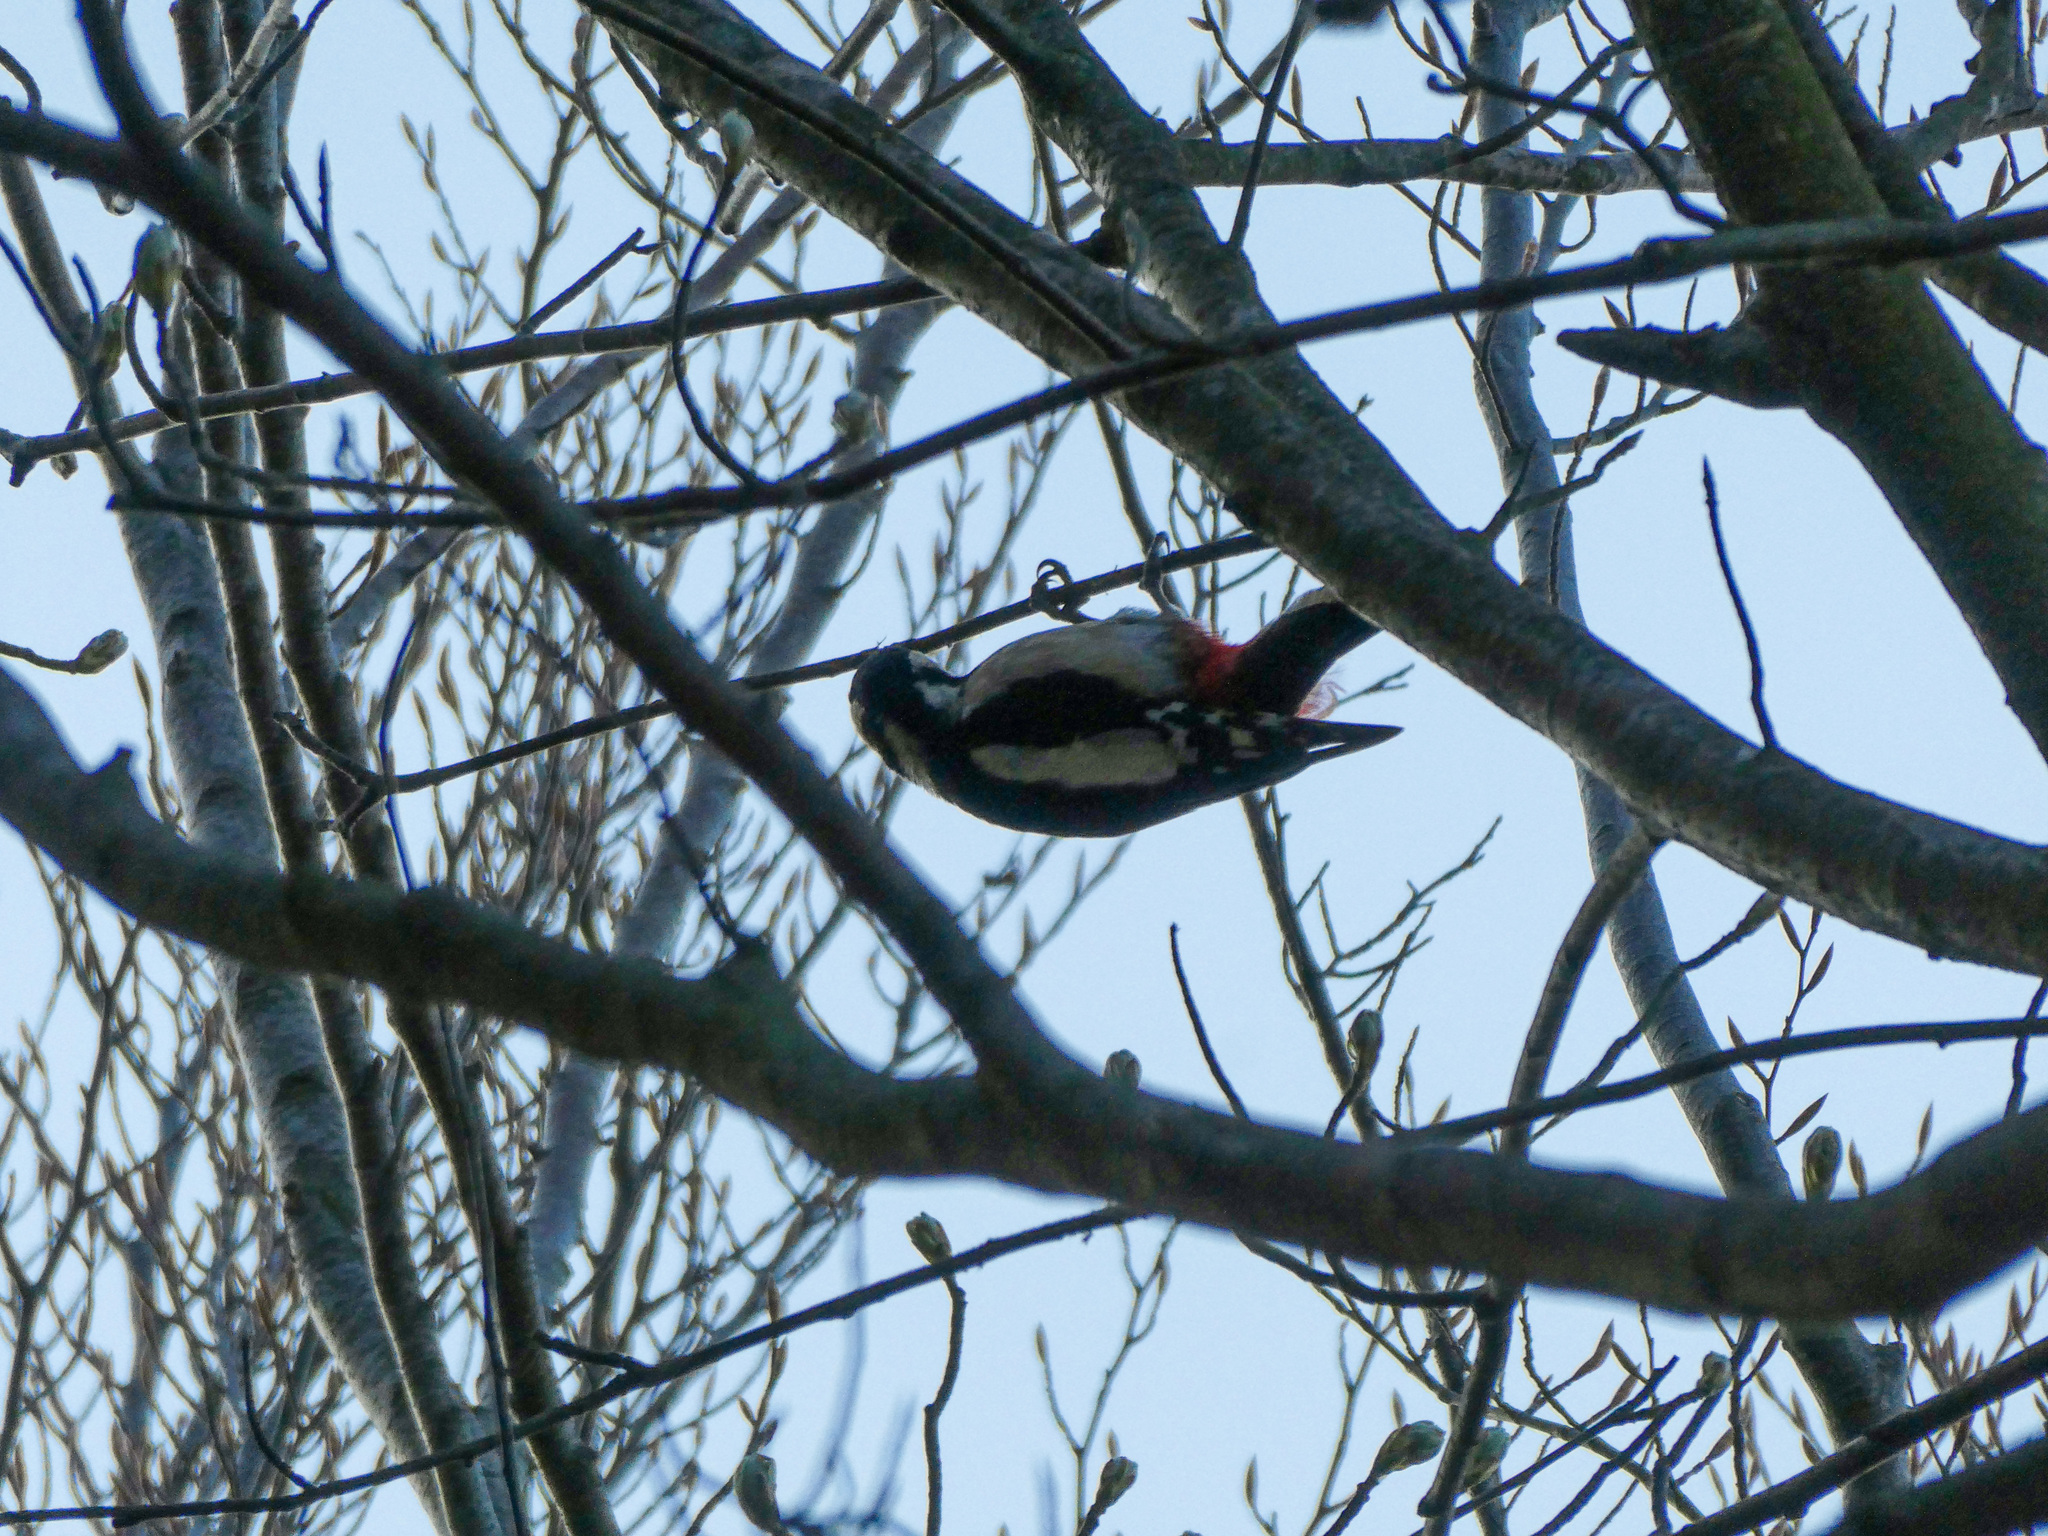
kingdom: Animalia
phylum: Chordata
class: Aves
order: Piciformes
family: Picidae
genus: Dendrocopos
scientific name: Dendrocopos major
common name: Great spotted woodpecker
